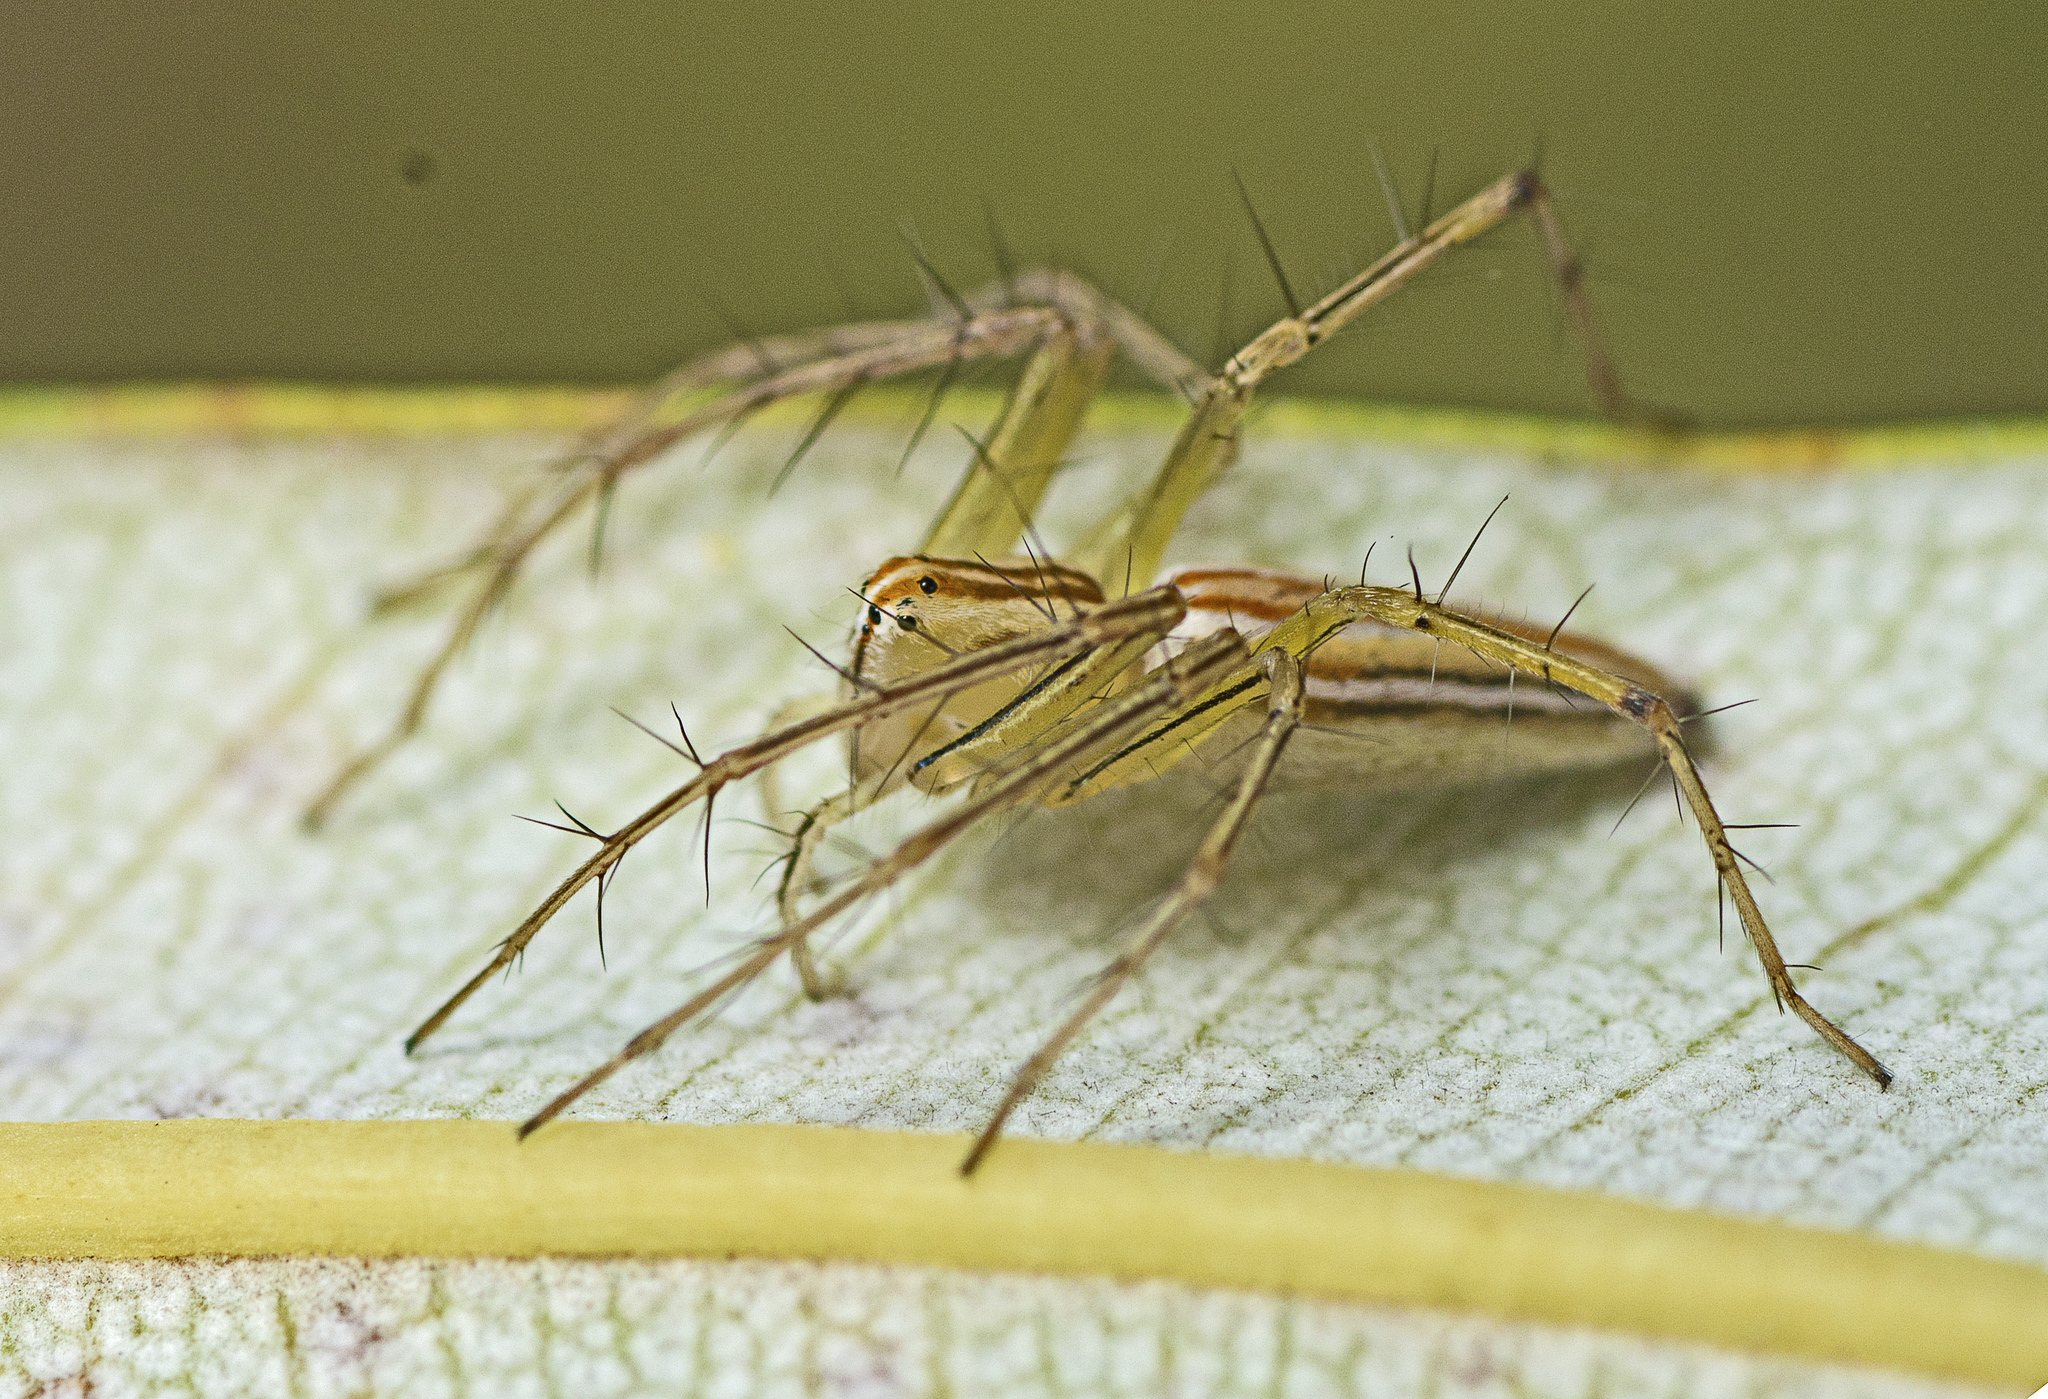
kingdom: Animalia
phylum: Arthropoda
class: Arachnida
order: Araneae
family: Oxyopidae
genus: Oxyopes
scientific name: Oxyopes macilentus
